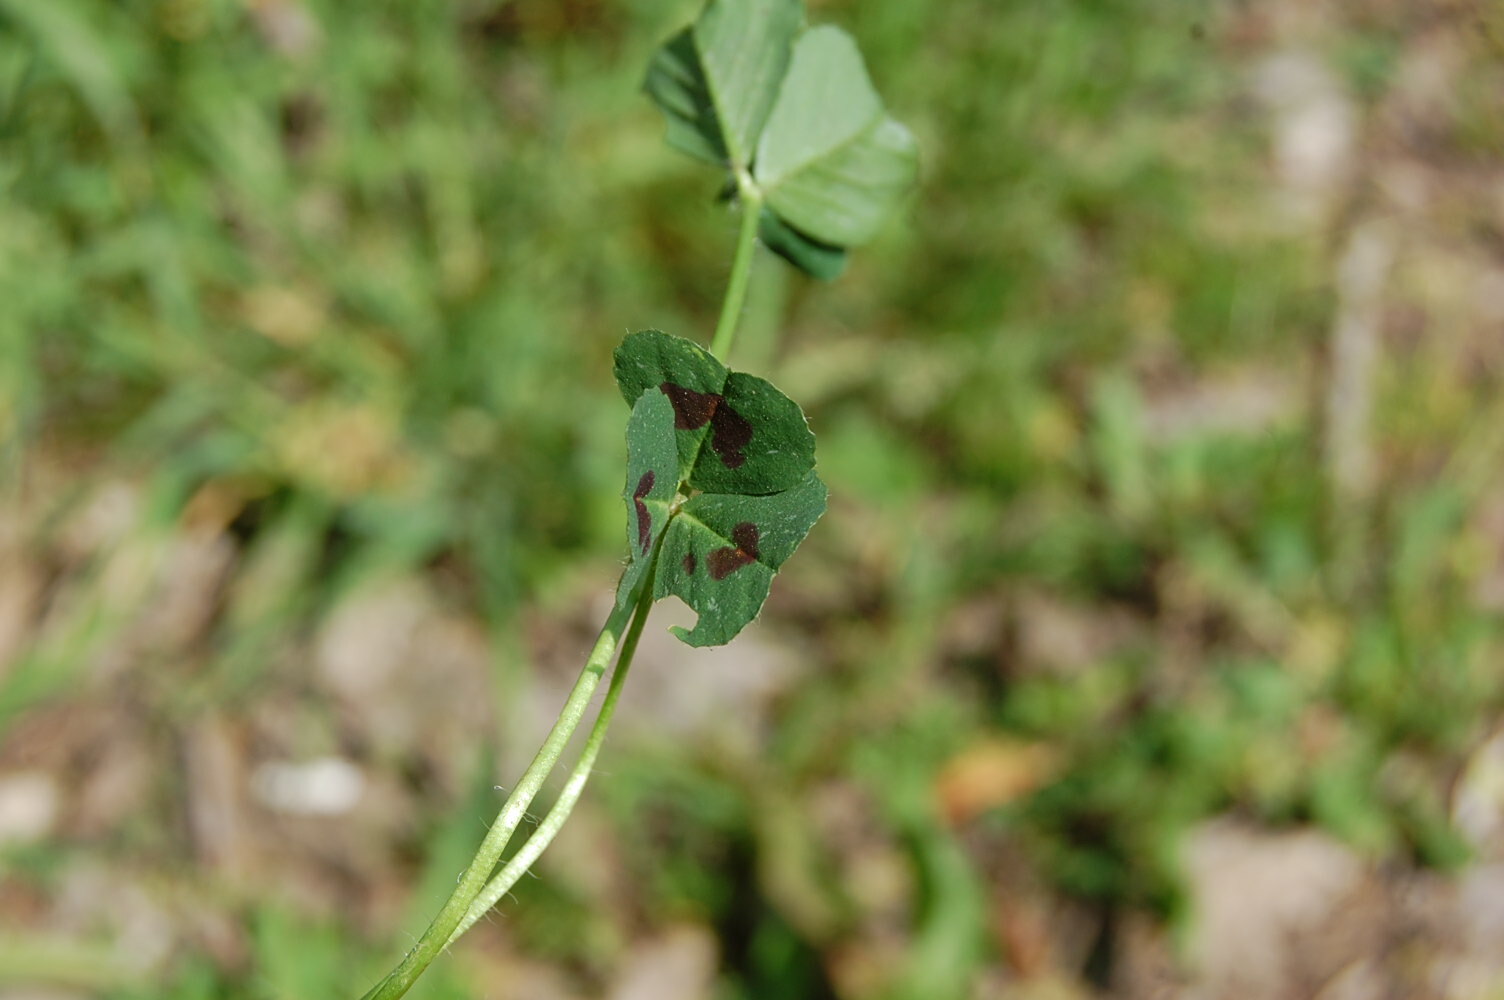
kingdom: Plantae
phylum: Tracheophyta
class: Magnoliopsida
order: Fabales
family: Fabaceae
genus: Medicago
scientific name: Medicago arabica
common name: Spotted medick
